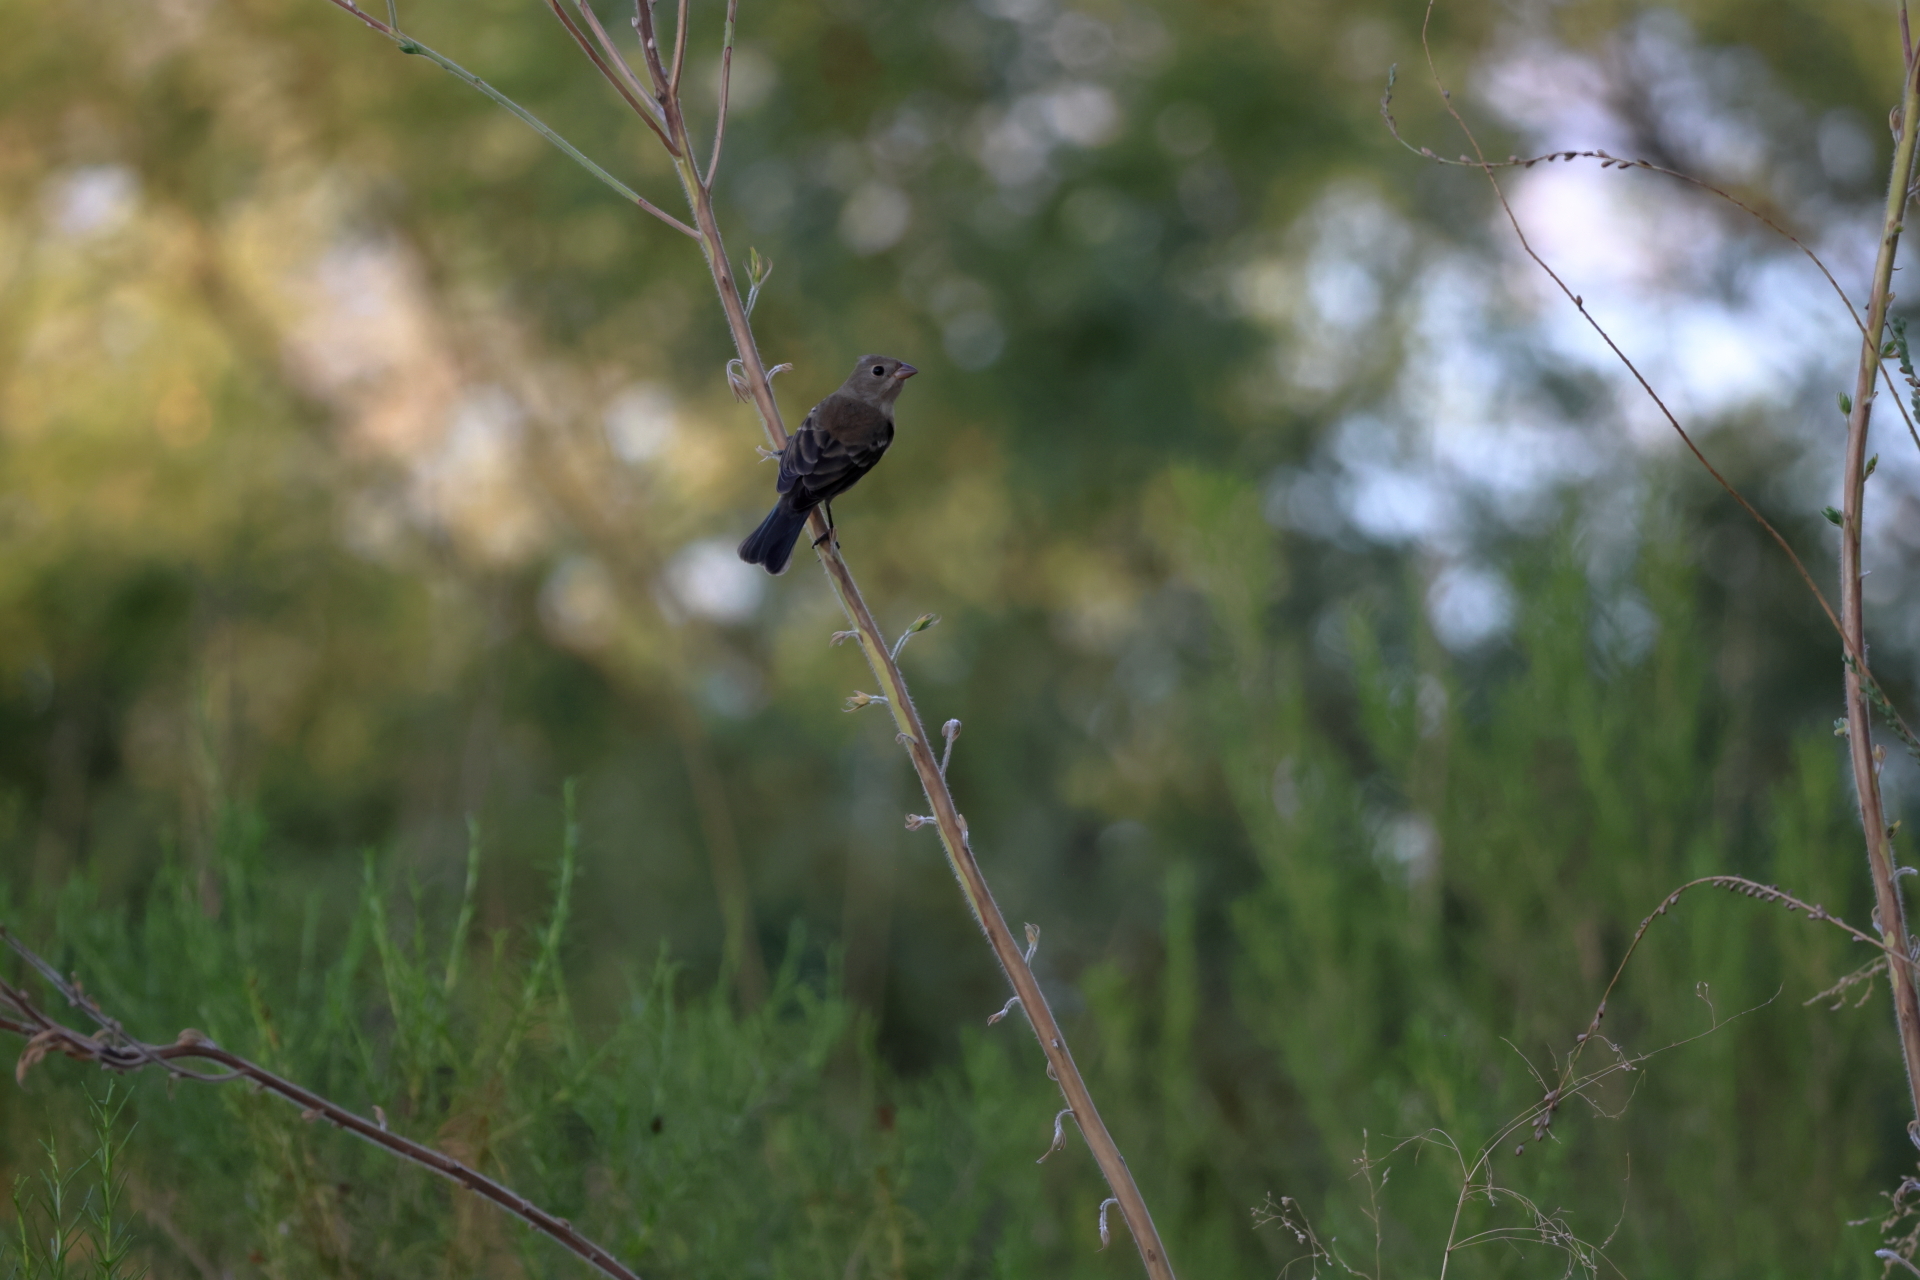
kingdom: Animalia
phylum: Chordata
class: Aves
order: Passeriformes
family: Cardinalidae
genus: Passerina
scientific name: Passerina amoena
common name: Lazuli bunting
